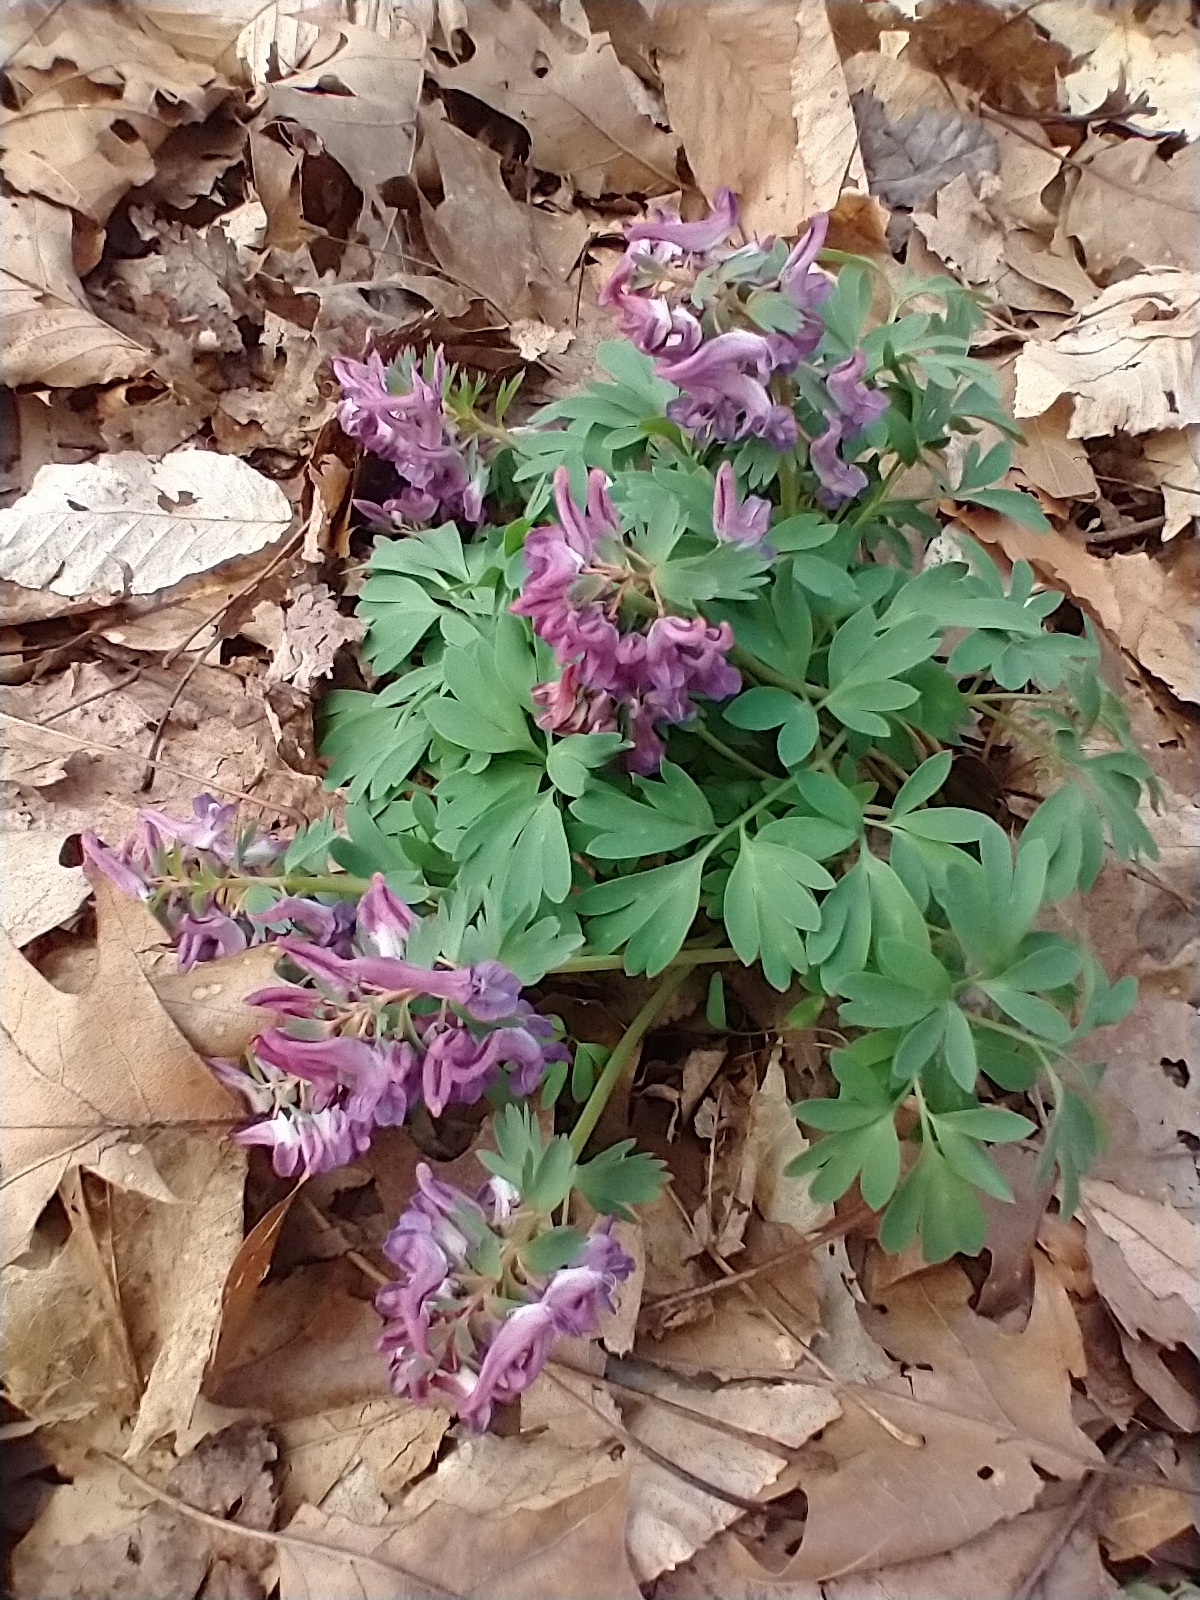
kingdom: Plantae
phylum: Tracheophyta
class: Magnoliopsida
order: Ranunculales
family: Papaveraceae
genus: Corydalis
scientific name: Corydalis solida
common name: Bird-in-a-bush
